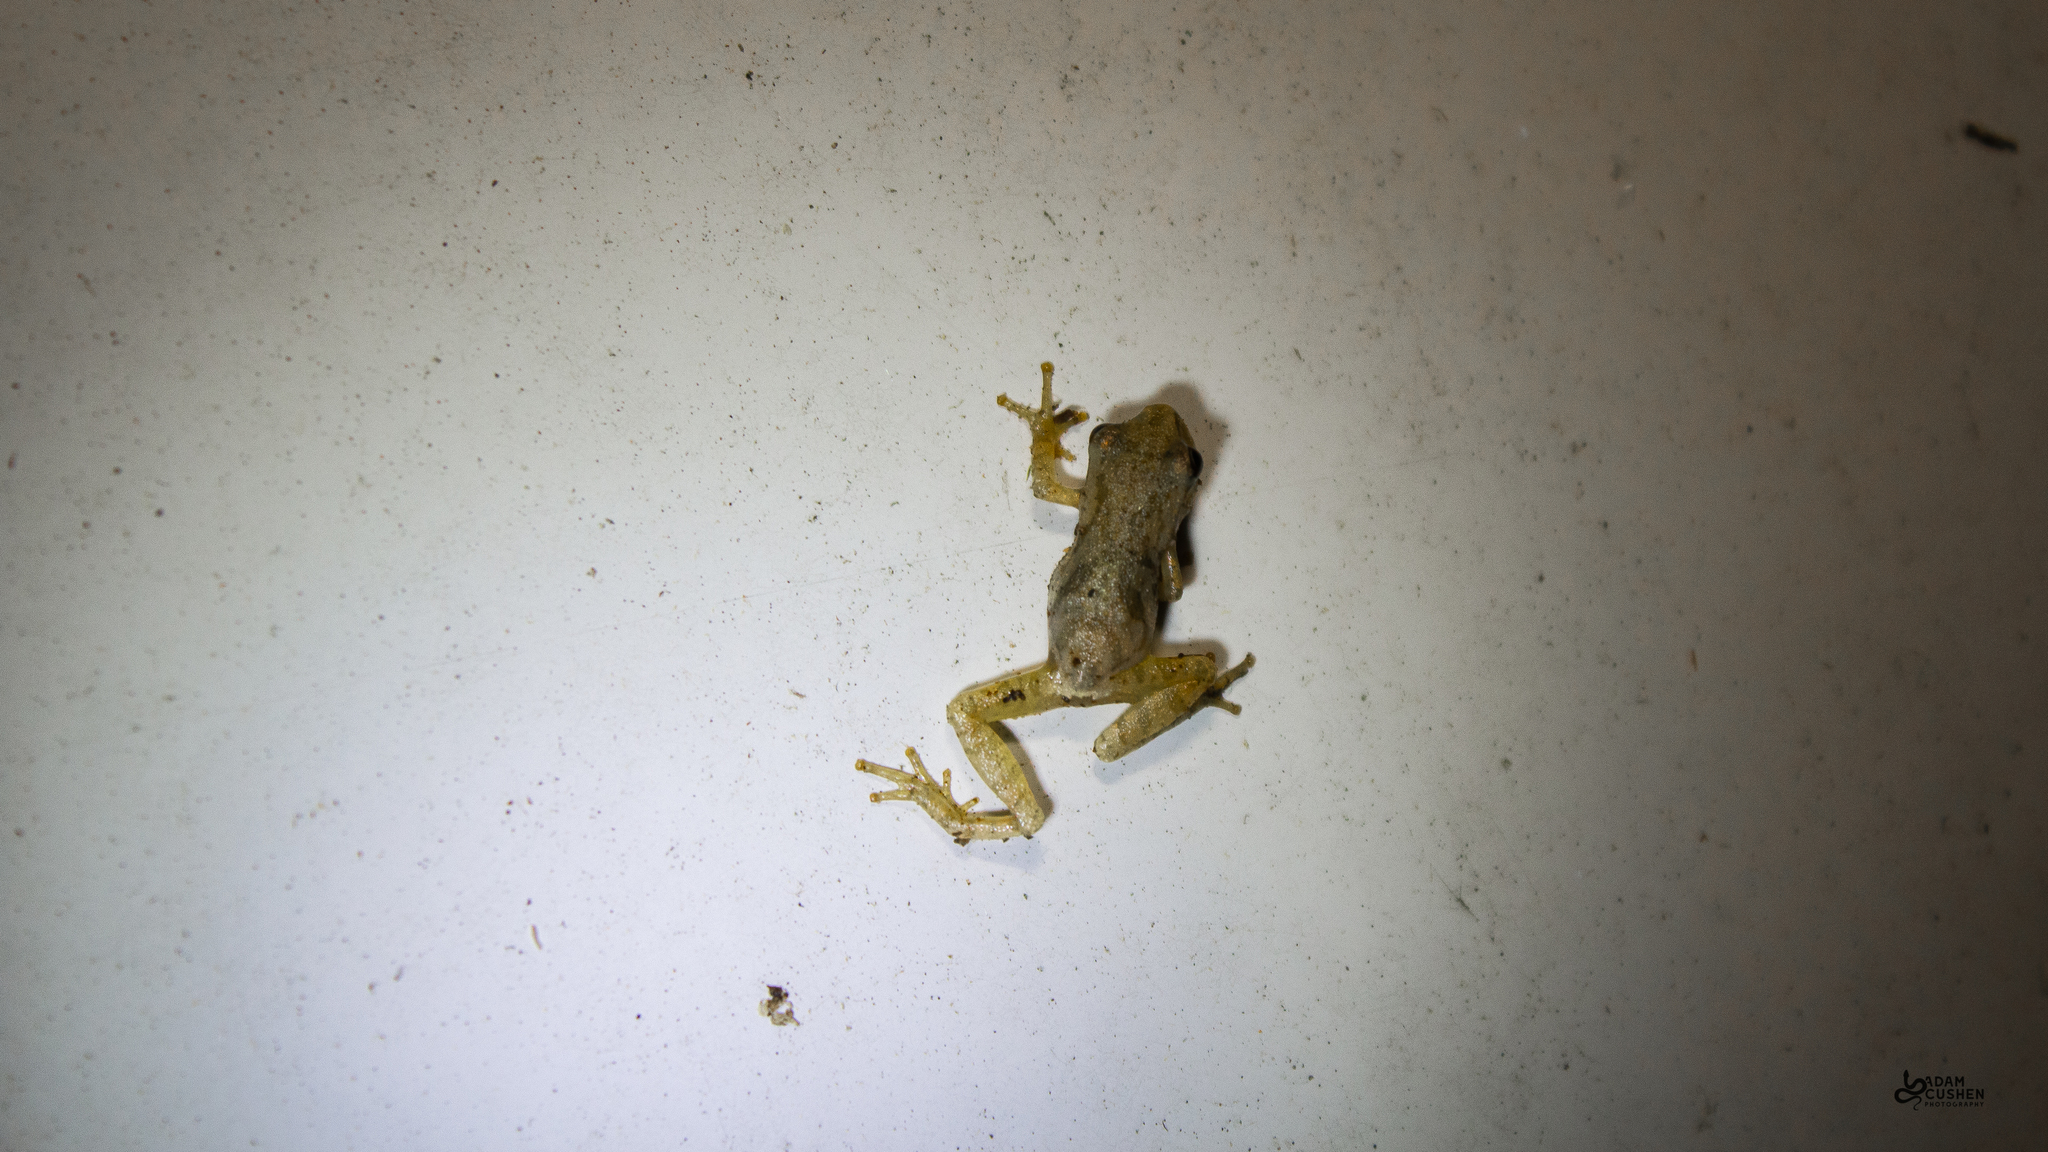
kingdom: Animalia
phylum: Chordata
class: Amphibia
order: Anura
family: Hylidae
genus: Pseudacris
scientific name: Pseudacris crucifer
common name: Spring peeper
